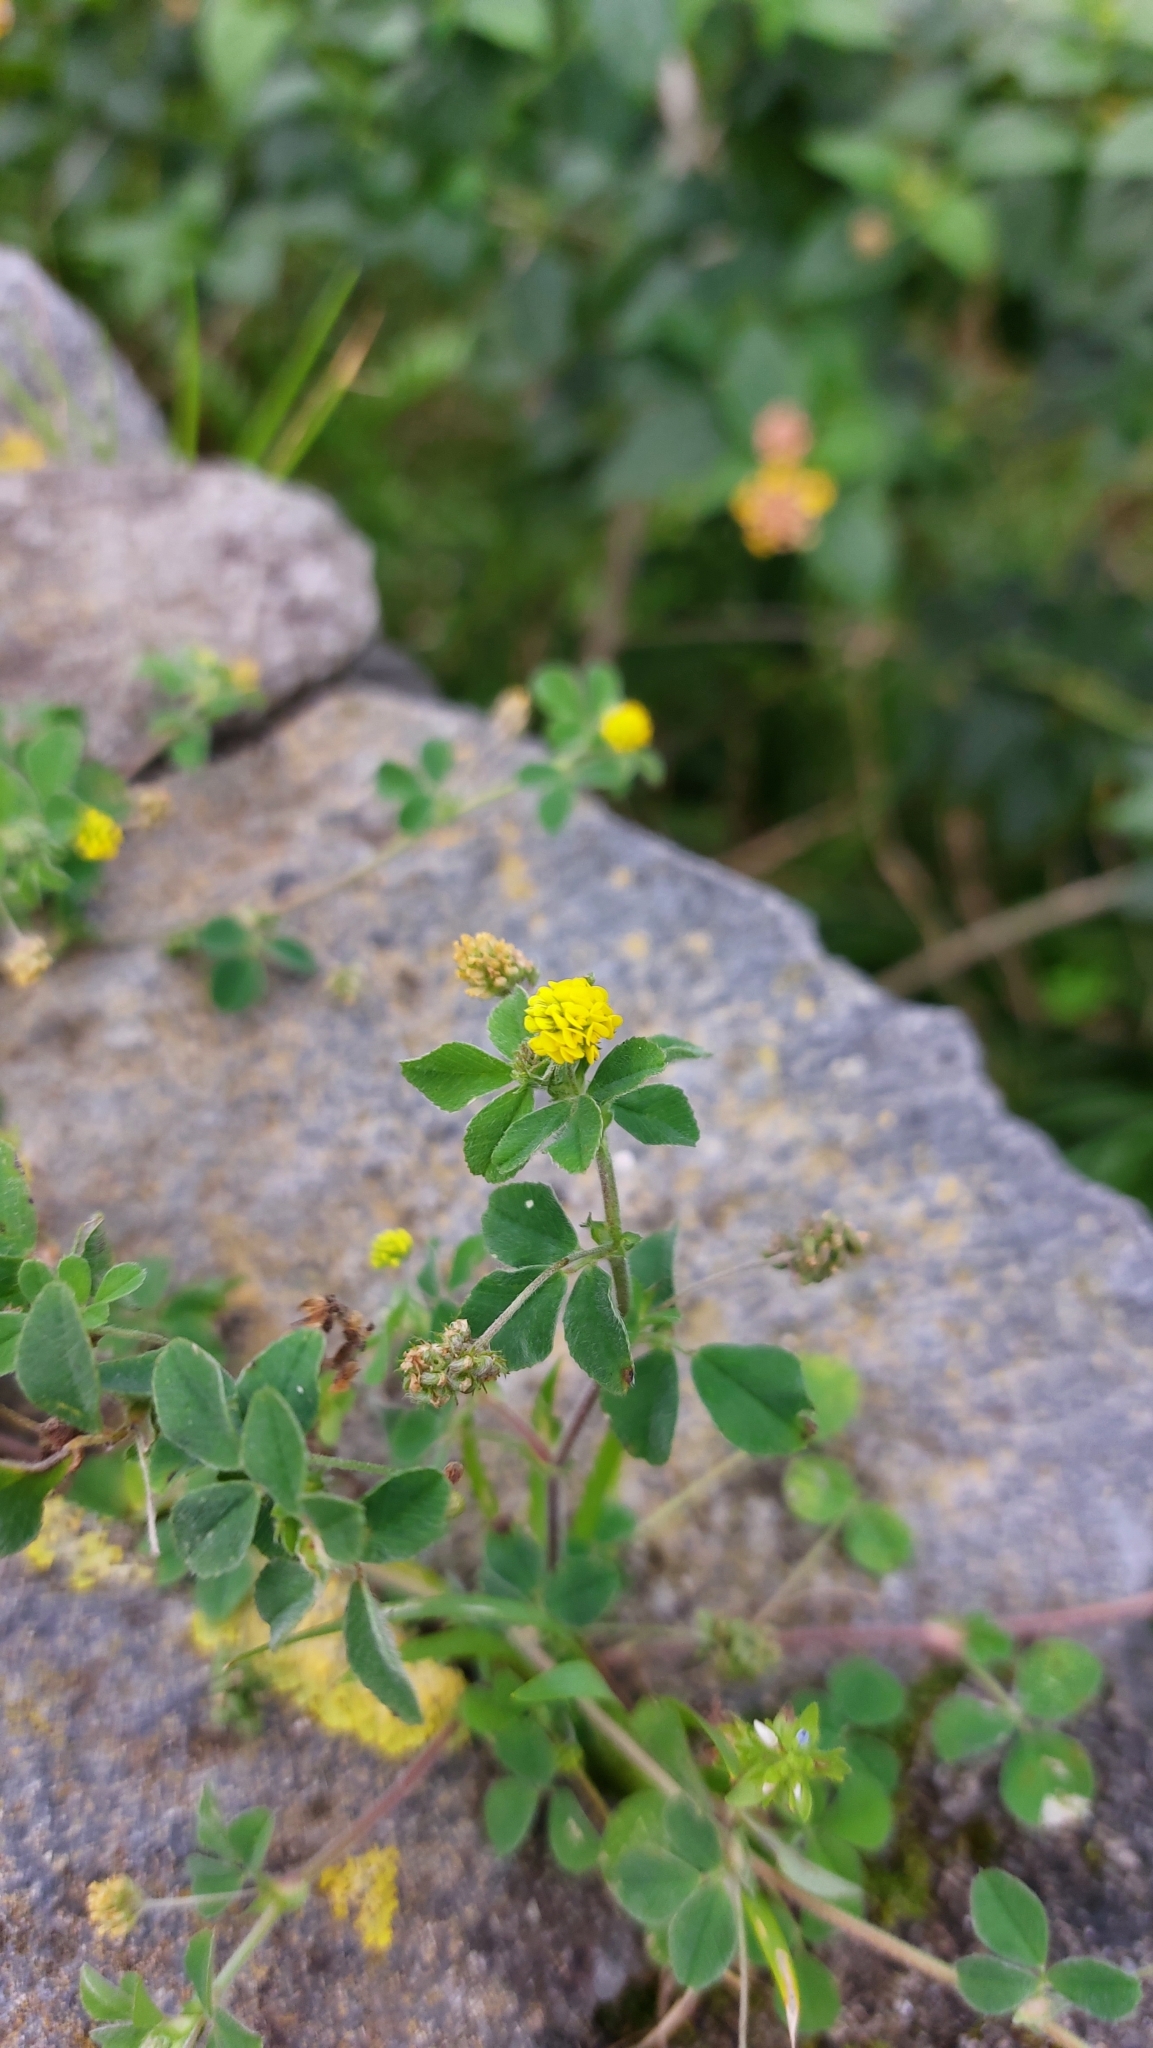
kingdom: Plantae
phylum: Tracheophyta
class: Magnoliopsida
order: Fabales
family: Fabaceae
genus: Medicago
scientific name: Medicago lupulina
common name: Black medick
